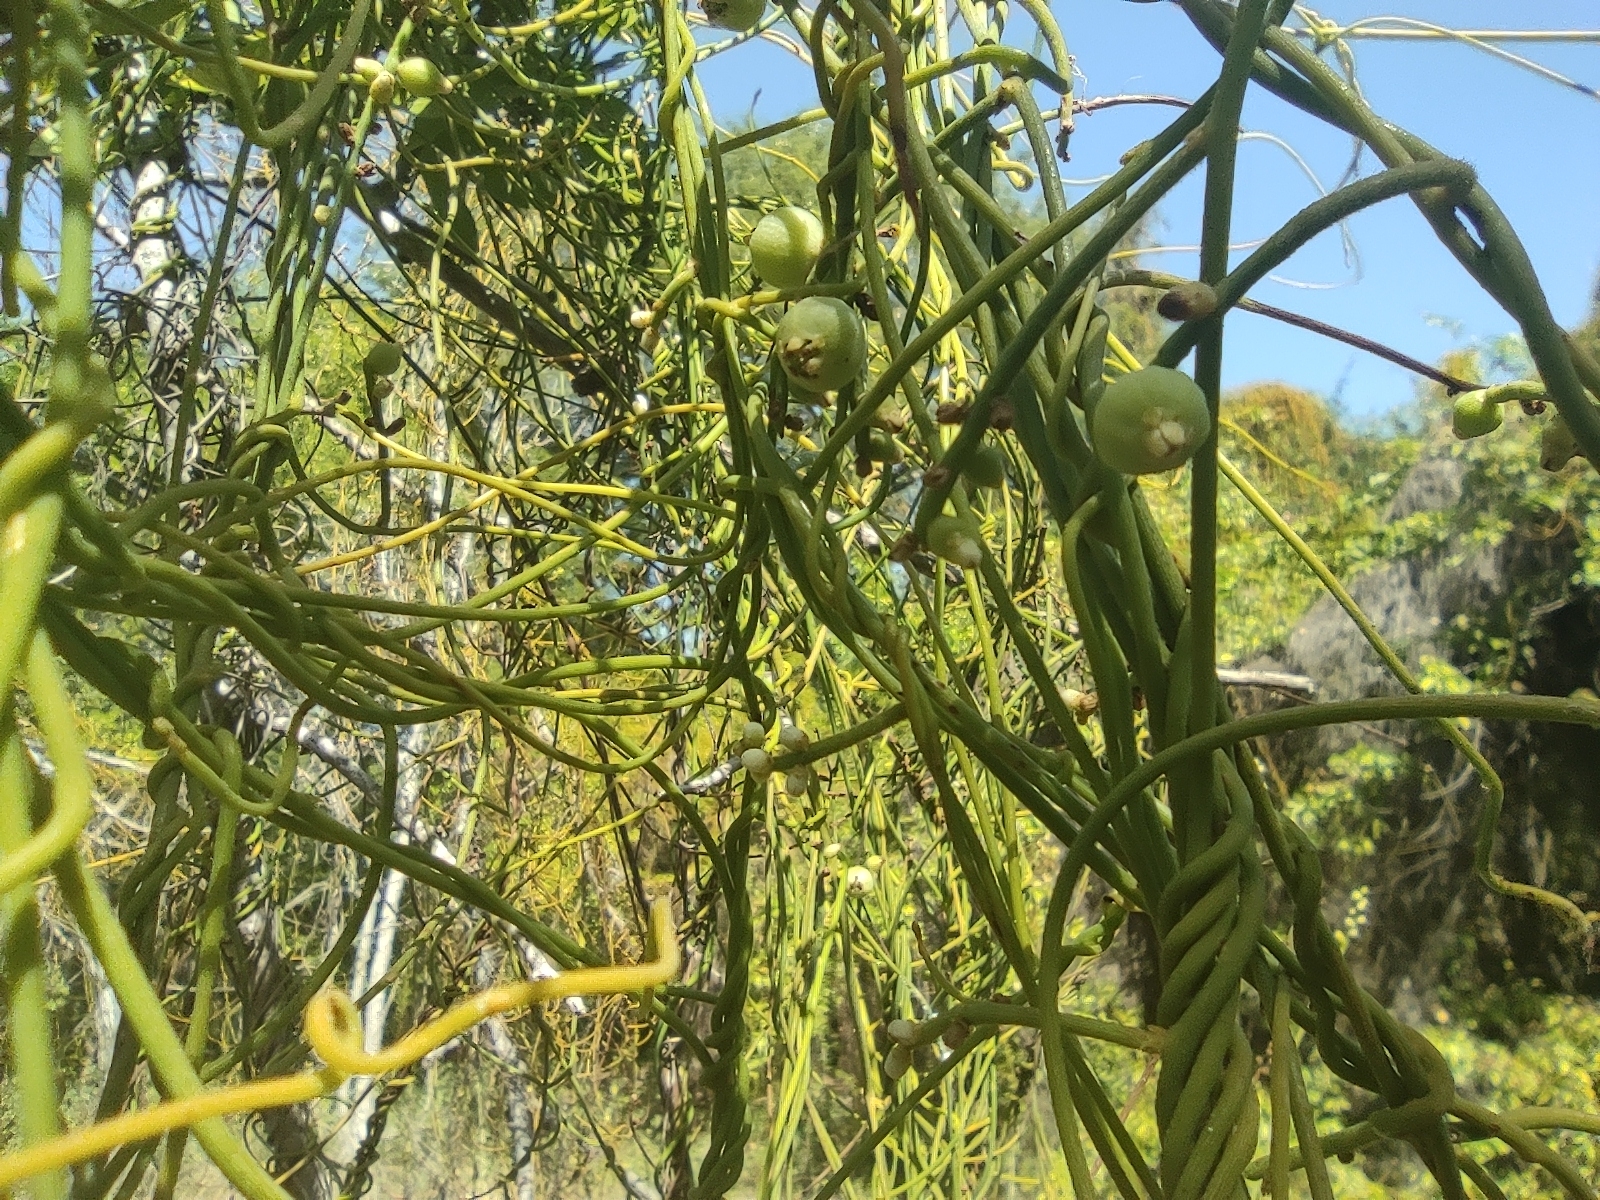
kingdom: Plantae
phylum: Tracheophyta
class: Magnoliopsida
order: Solanales
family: Convolvulaceae
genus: Cuscuta
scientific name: Cuscuta campestris
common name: Yellow dodder
